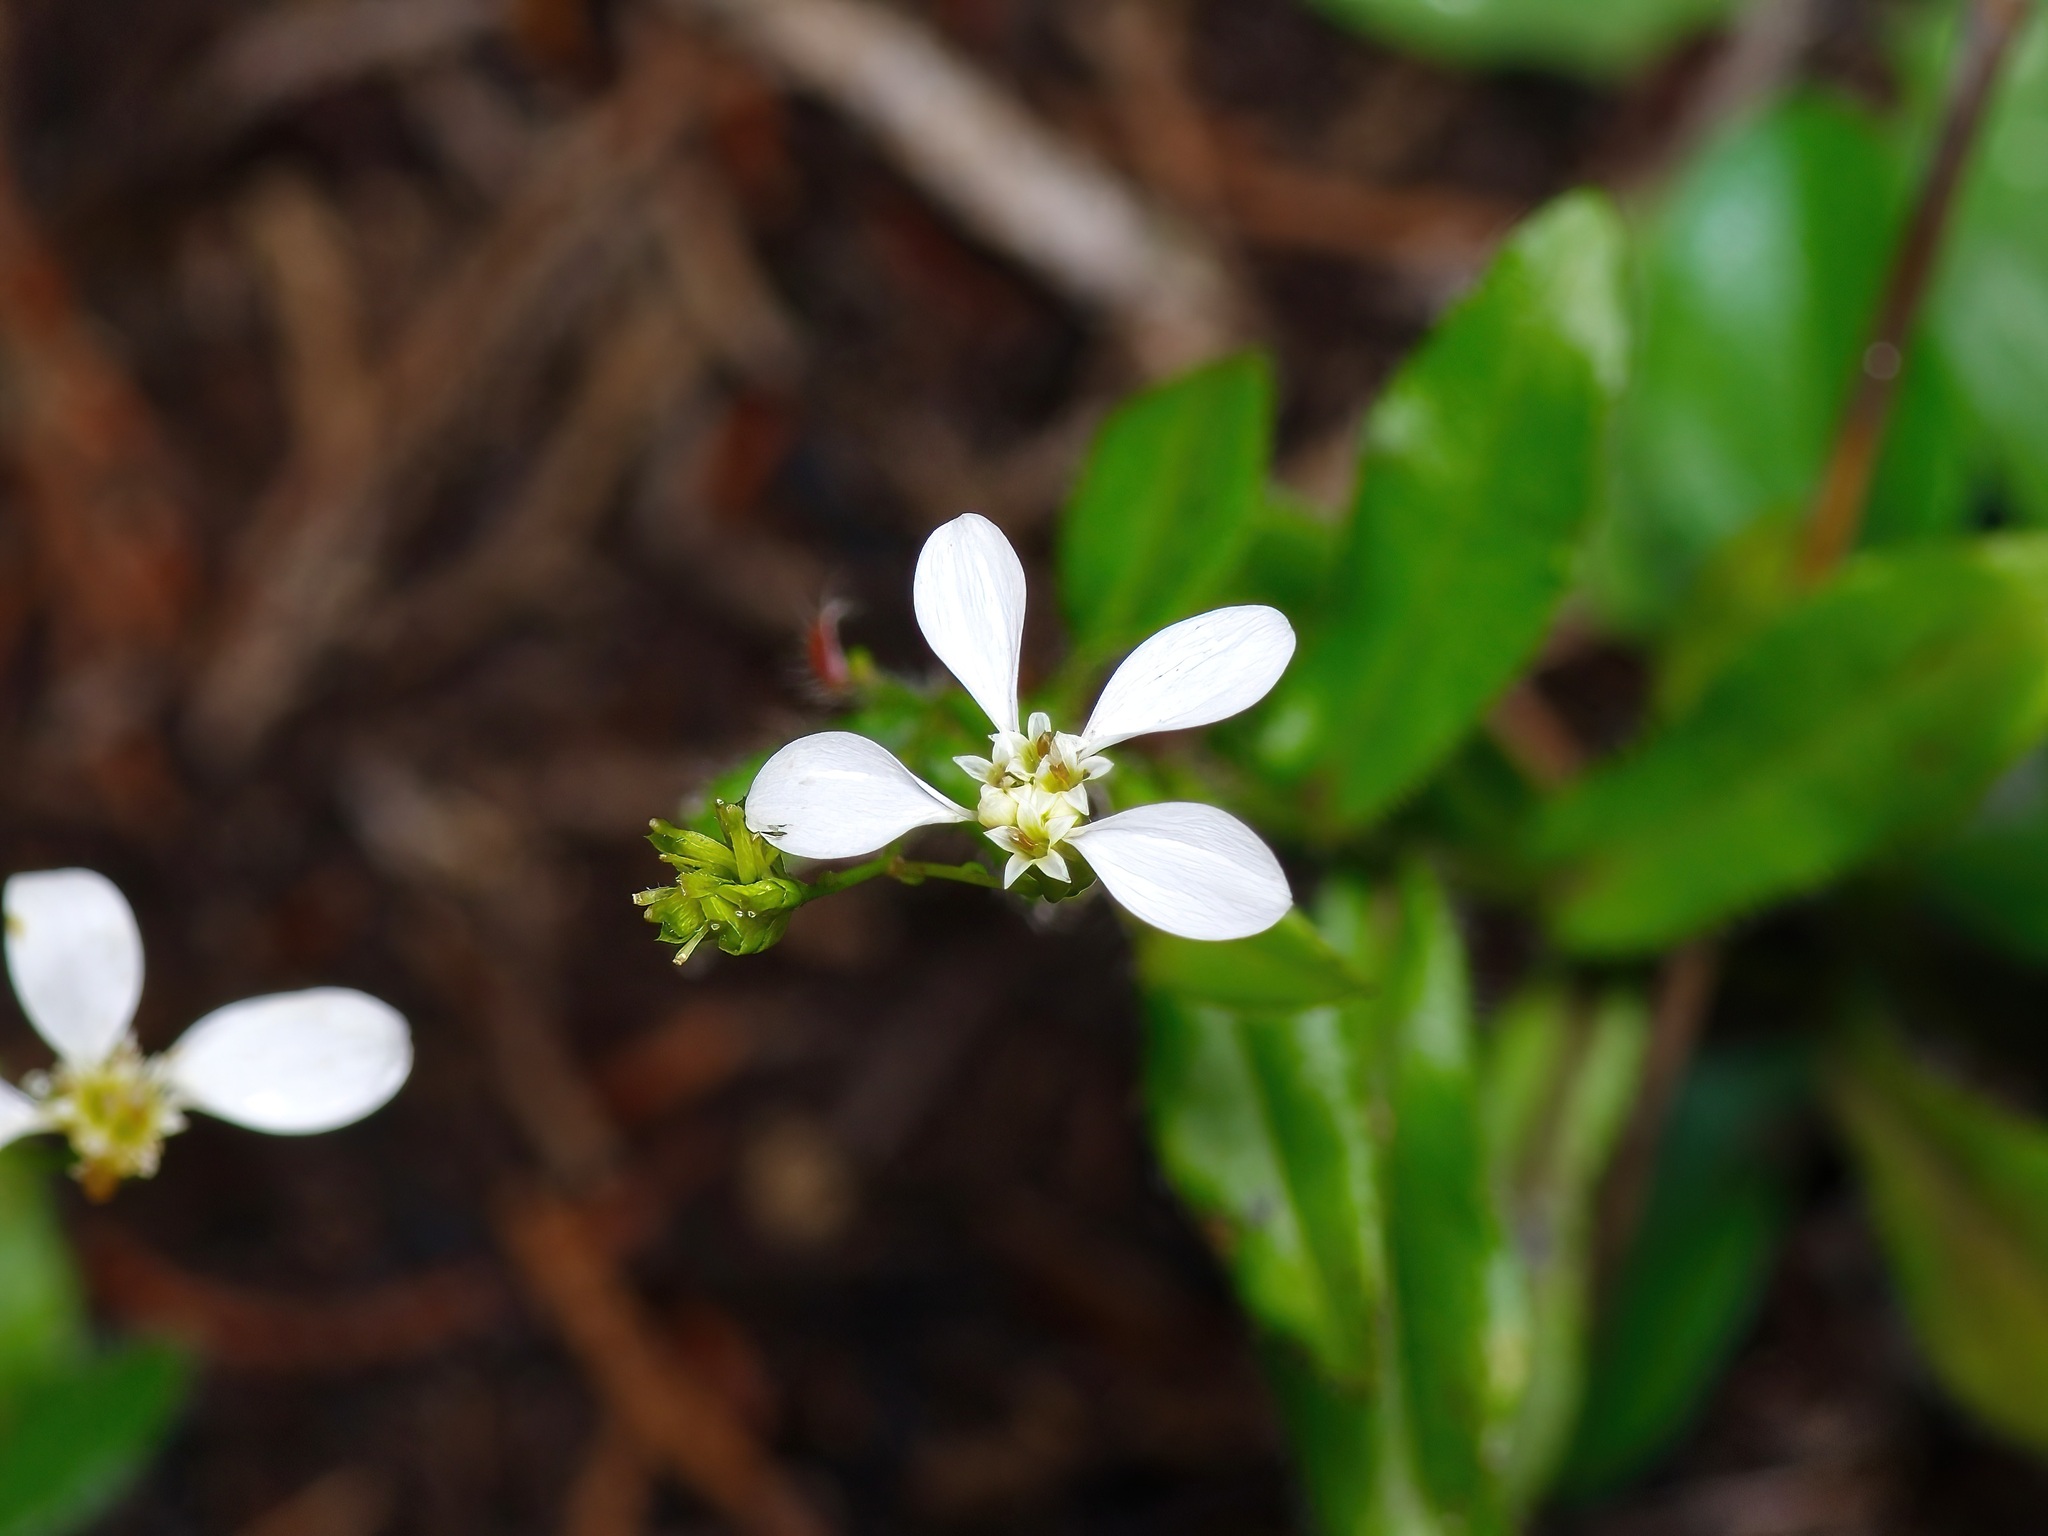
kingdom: Plantae
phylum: Tracheophyta
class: Magnoliopsida
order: Asterales
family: Asteraceae
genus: Chaetopappa
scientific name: Chaetopappa effusa
